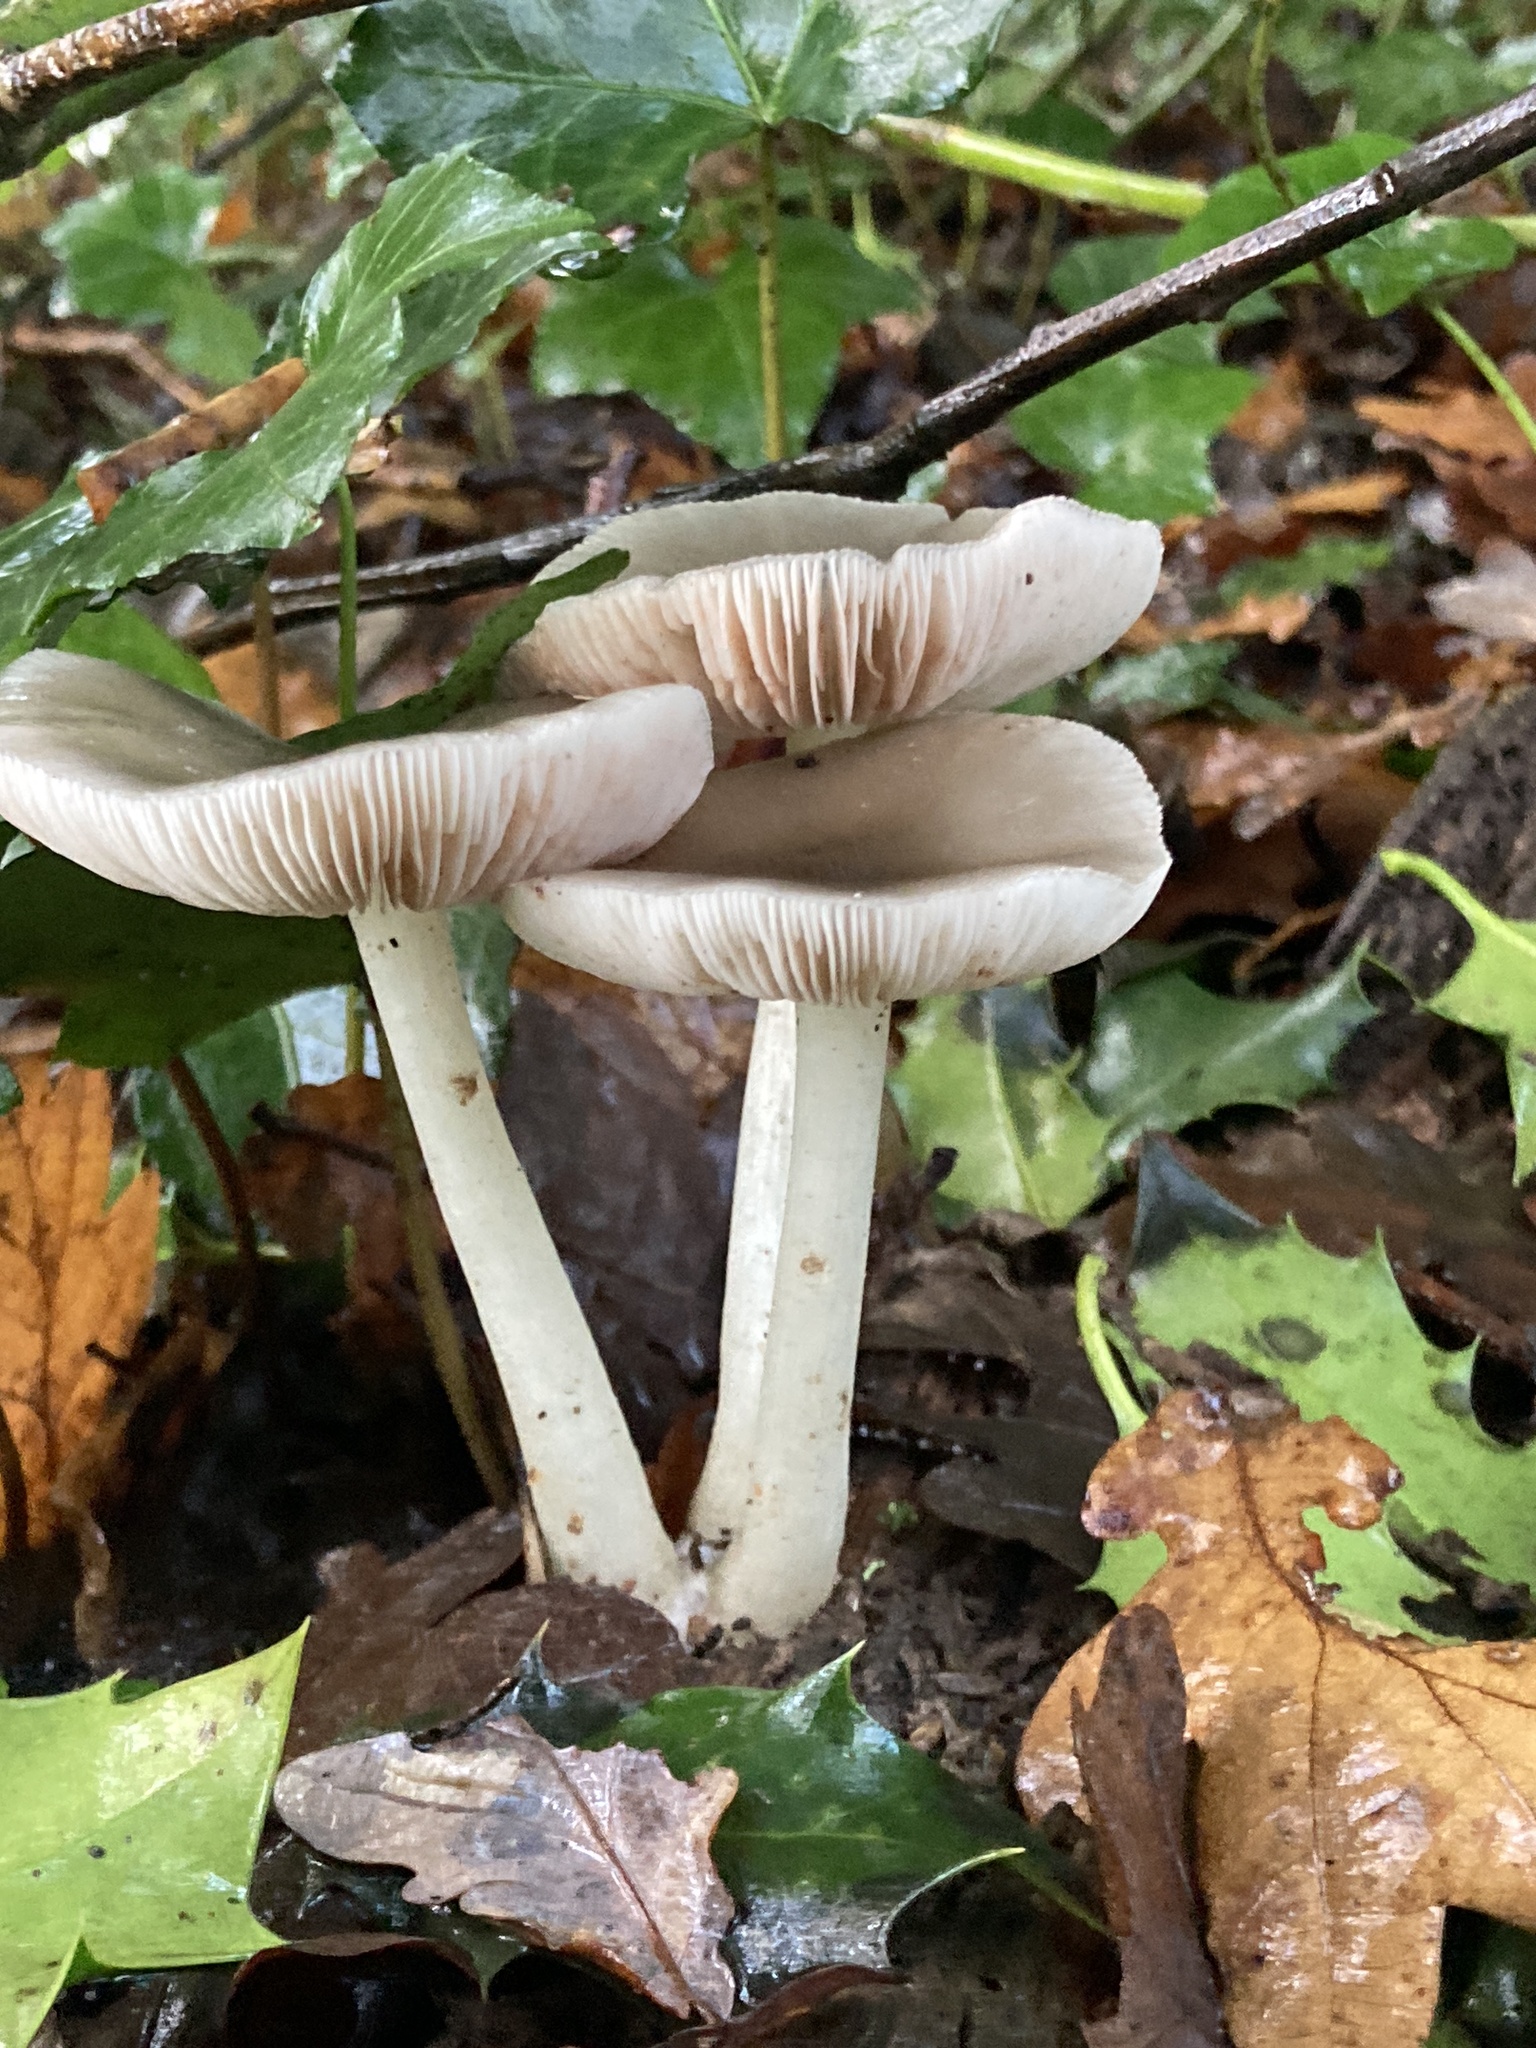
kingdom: Fungi
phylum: Basidiomycota
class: Agaricomycetes
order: Agaricales
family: Pluteaceae
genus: Pluteus
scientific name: Pluteus cervinus
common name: Deer shield
